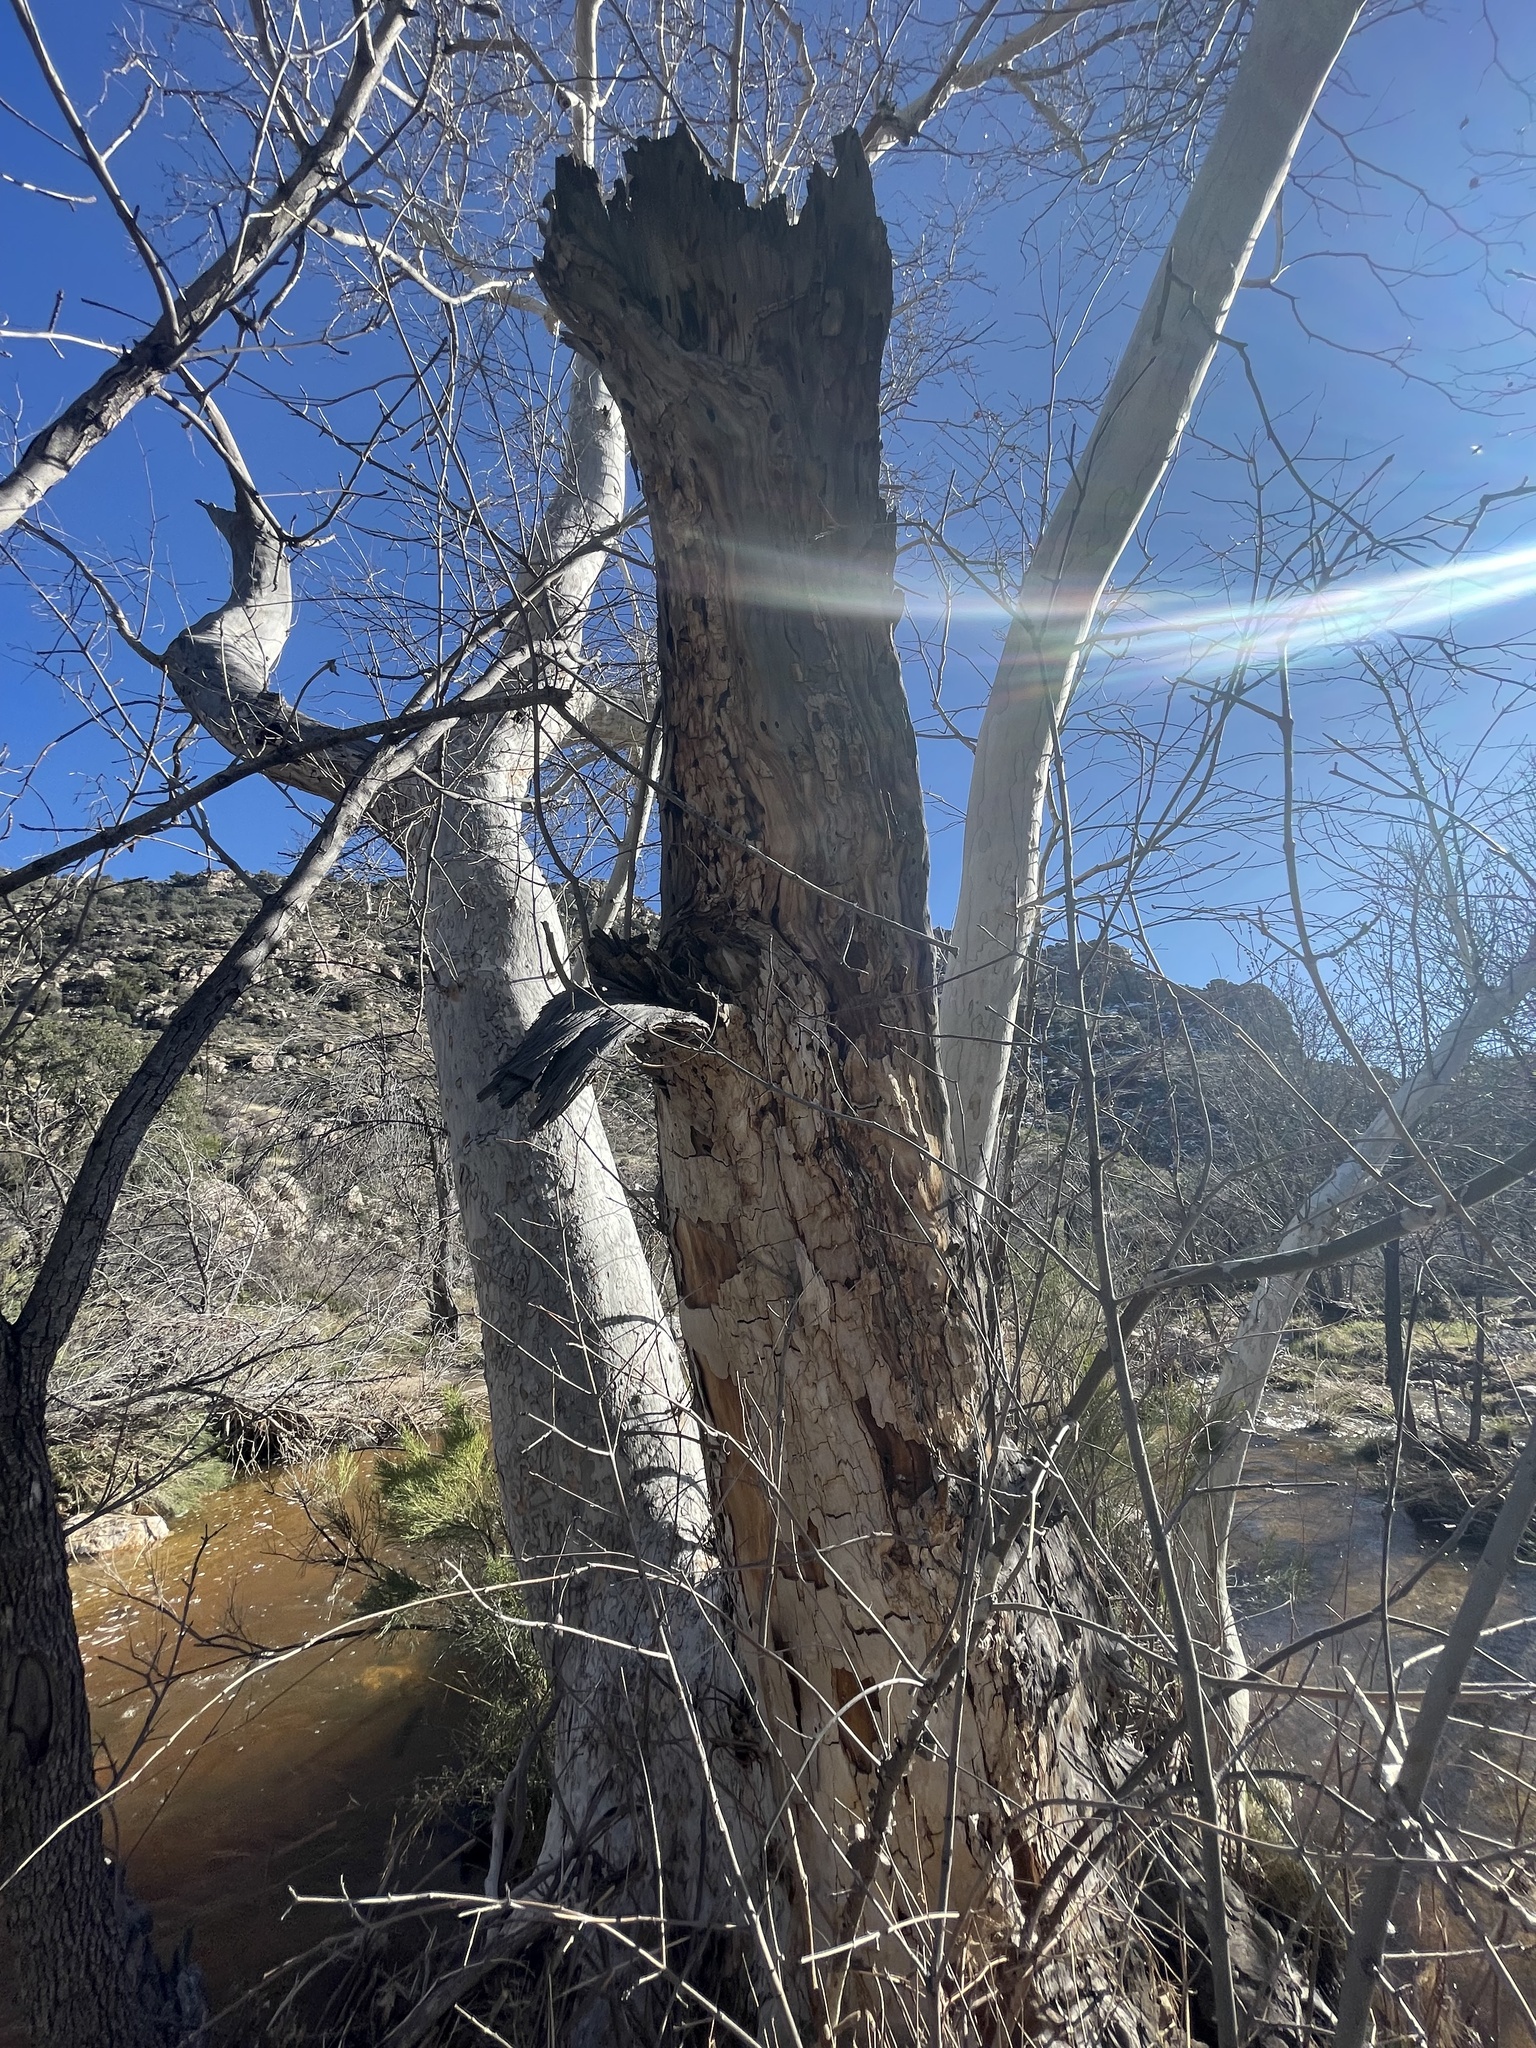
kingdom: Plantae
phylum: Tracheophyta
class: Magnoliopsida
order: Proteales
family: Platanaceae
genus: Platanus
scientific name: Platanus wrightii
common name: Arizona sycamore
